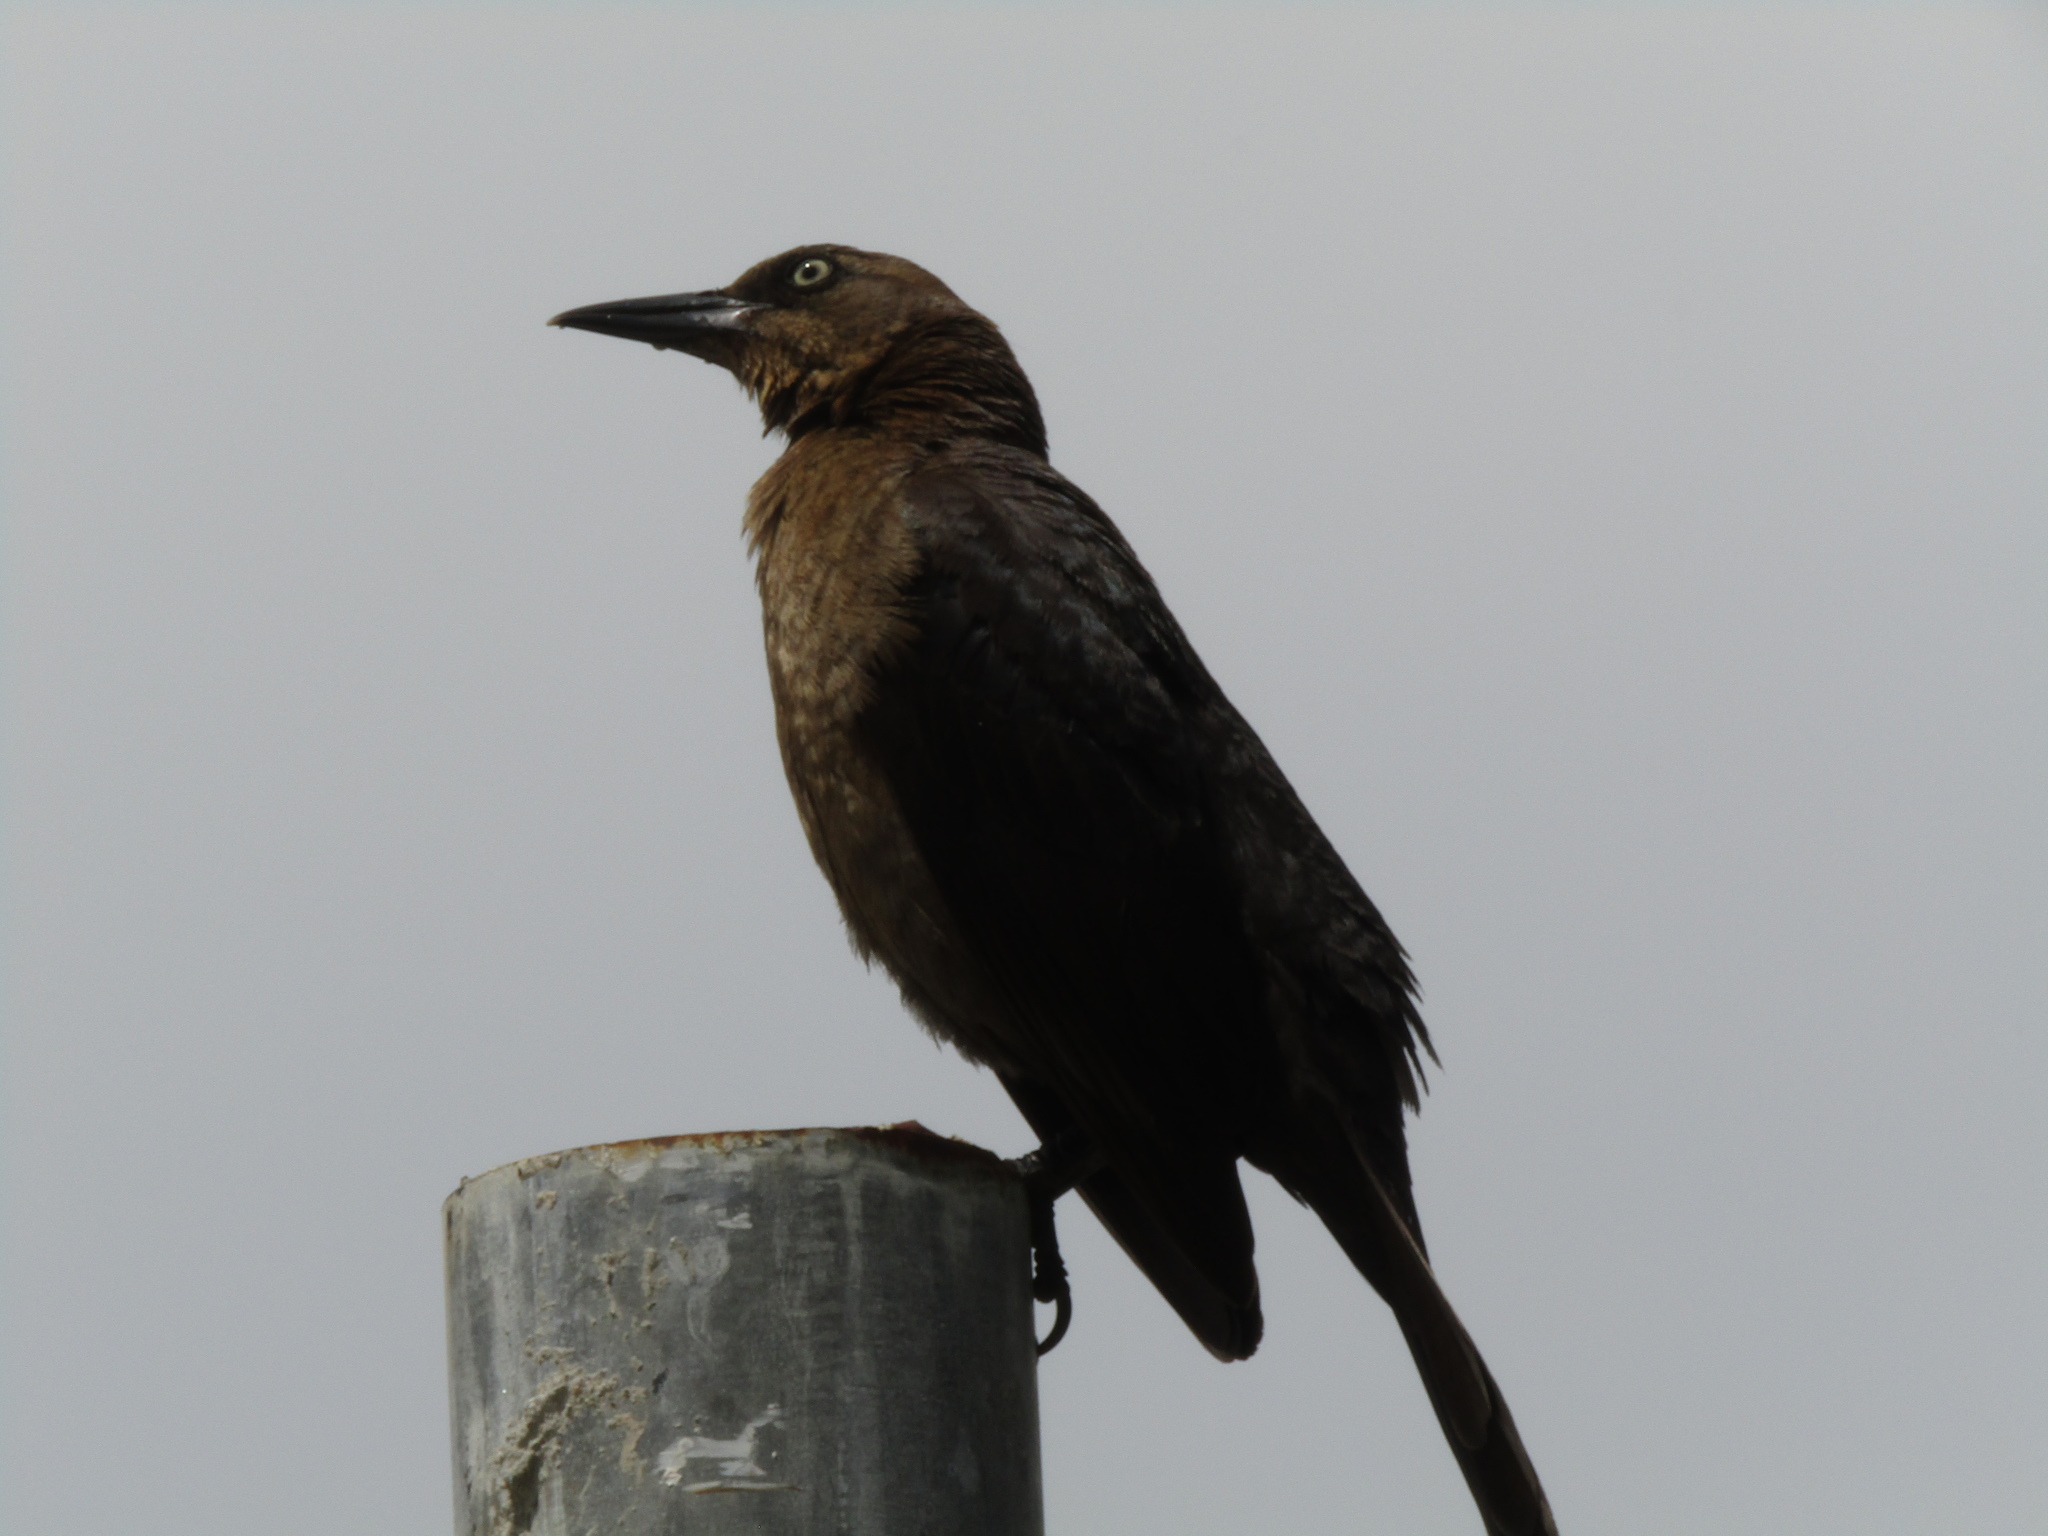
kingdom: Animalia
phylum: Chordata
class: Aves
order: Passeriformes
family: Icteridae
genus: Quiscalus
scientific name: Quiscalus mexicanus
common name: Great-tailed grackle
